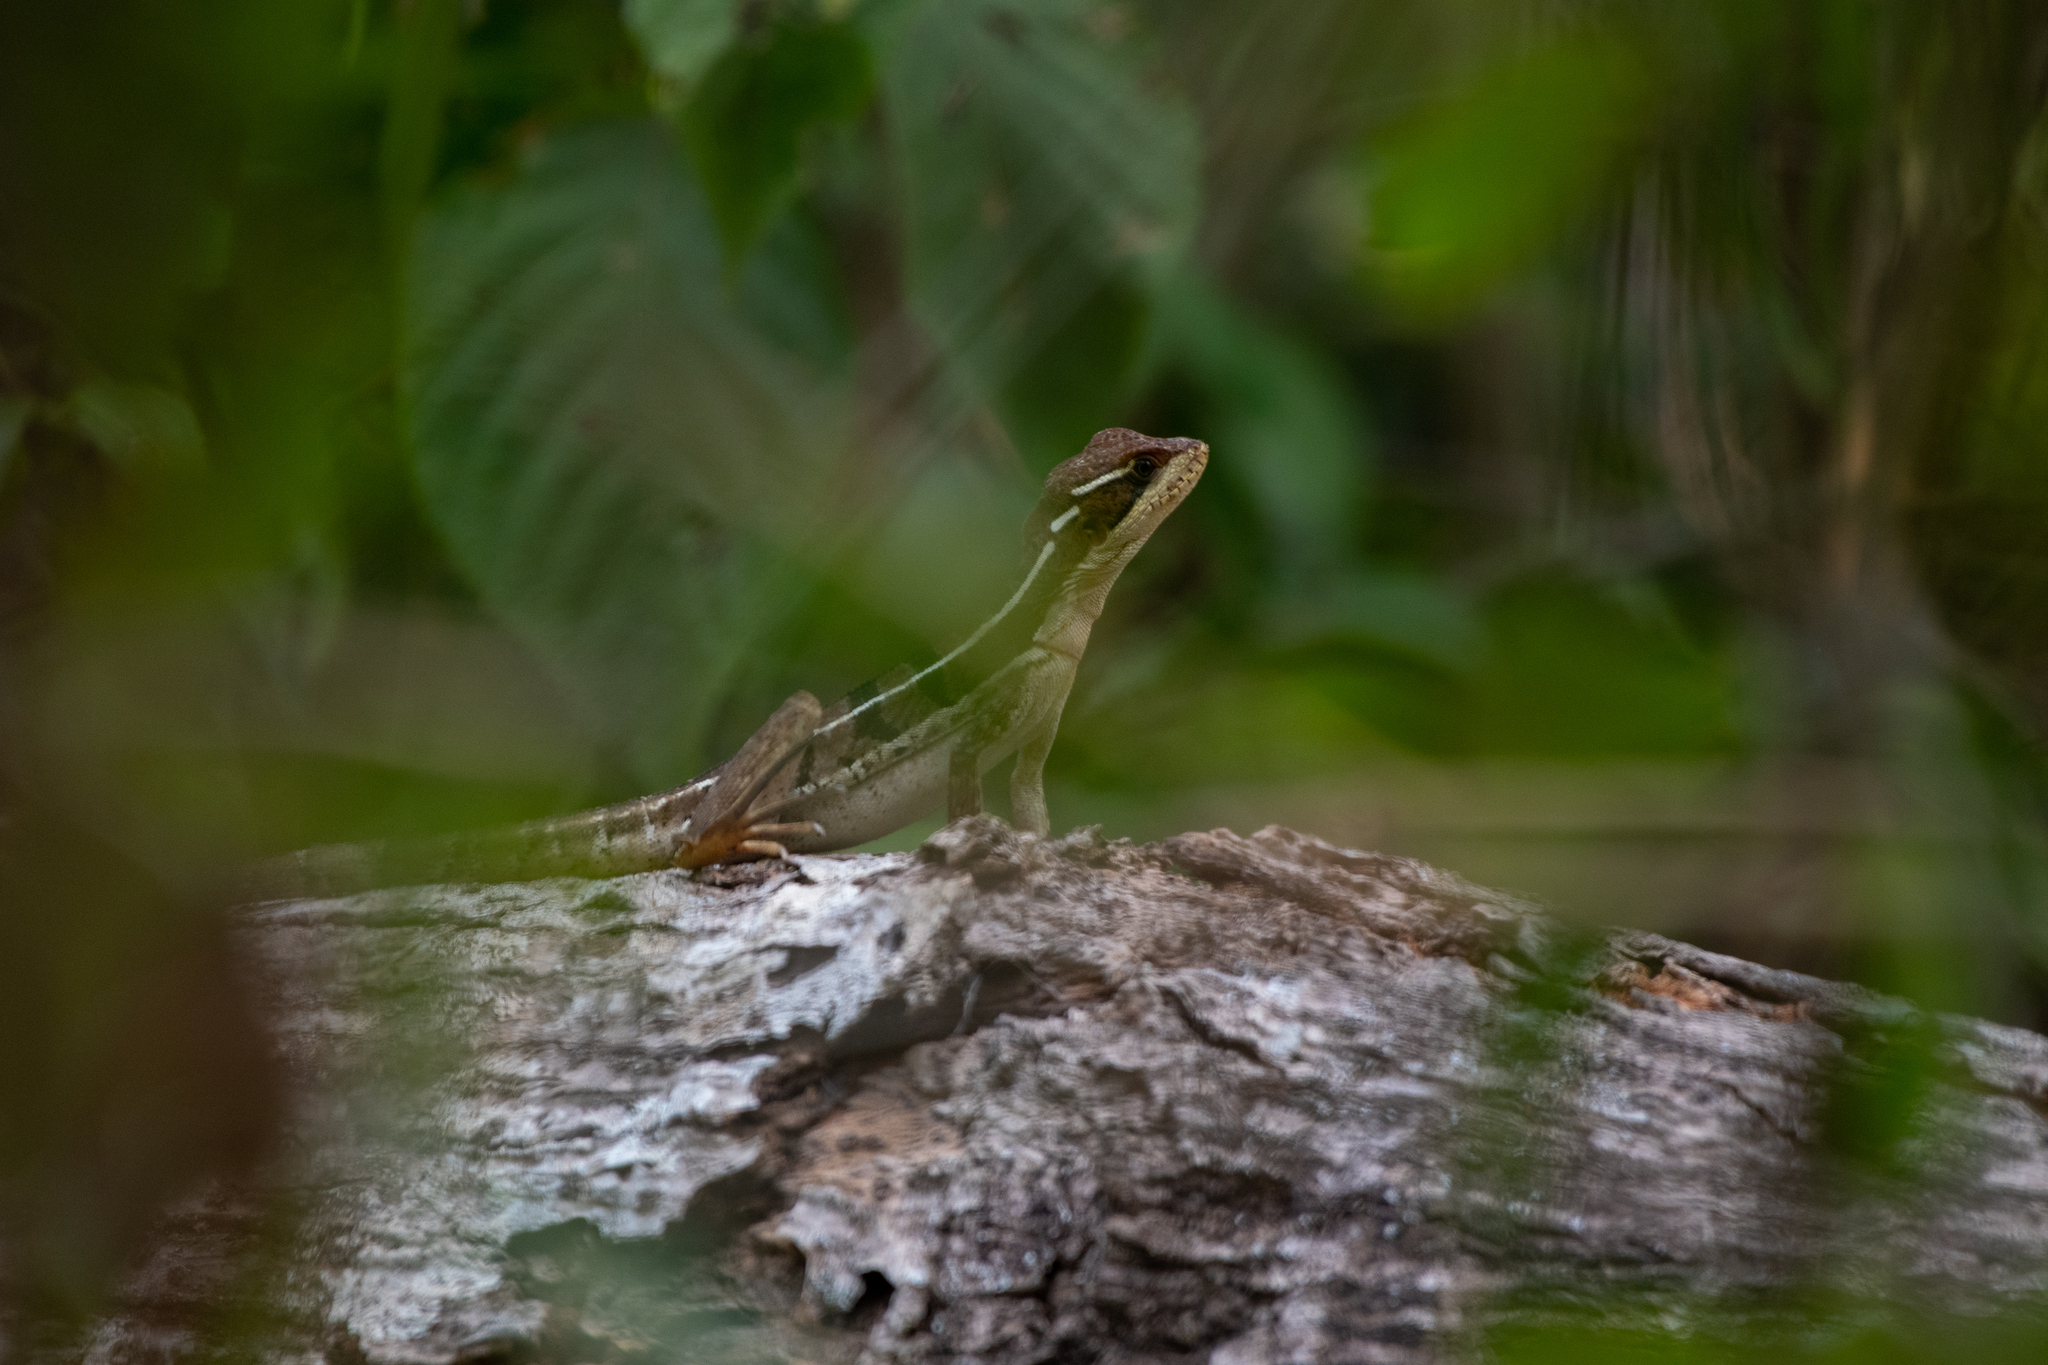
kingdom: Animalia
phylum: Chordata
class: Squamata
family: Corytophanidae
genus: Basiliscus
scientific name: Basiliscus vittatus
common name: Brown basilisk
